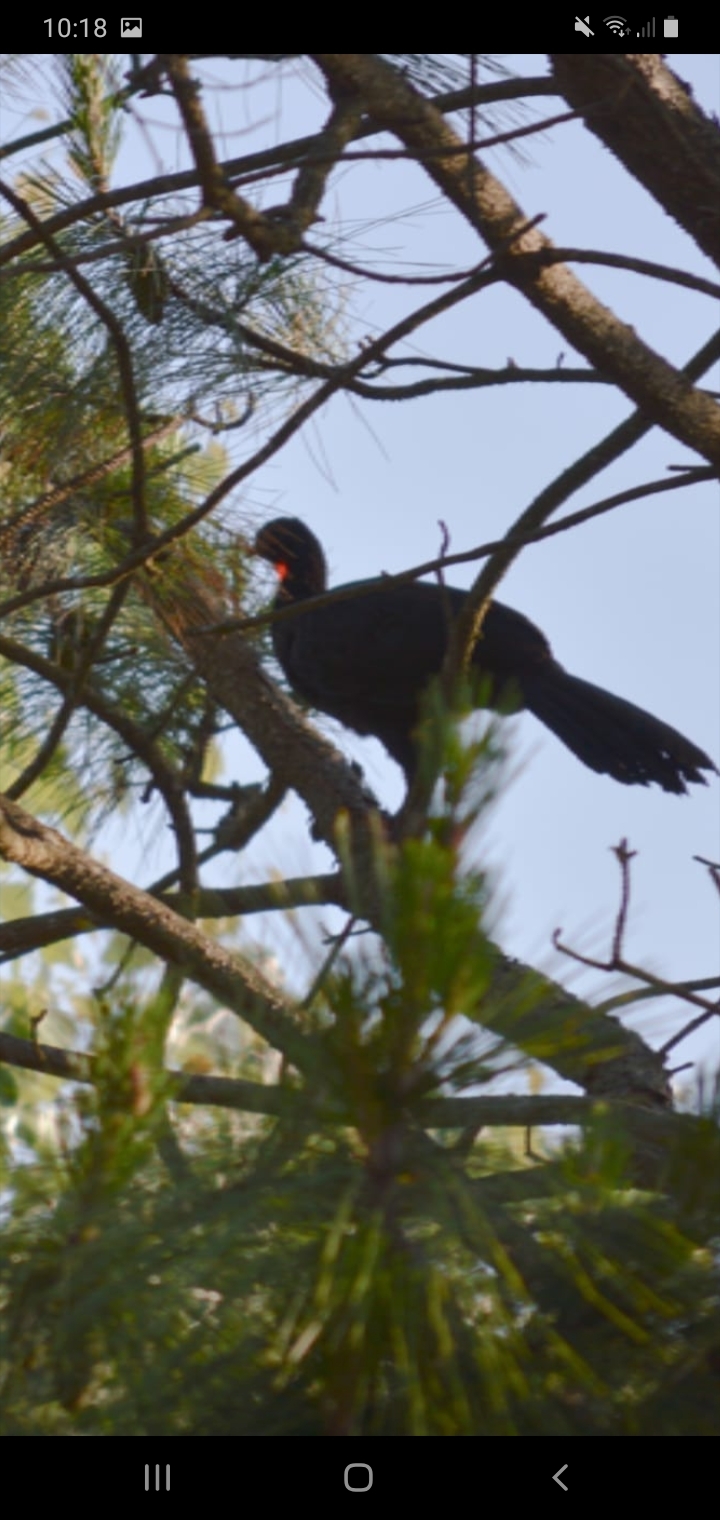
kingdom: Animalia
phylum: Chordata
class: Aves
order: Galliformes
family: Cracidae
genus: Penelope
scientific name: Penelope obscura
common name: Dusky-legged guan
